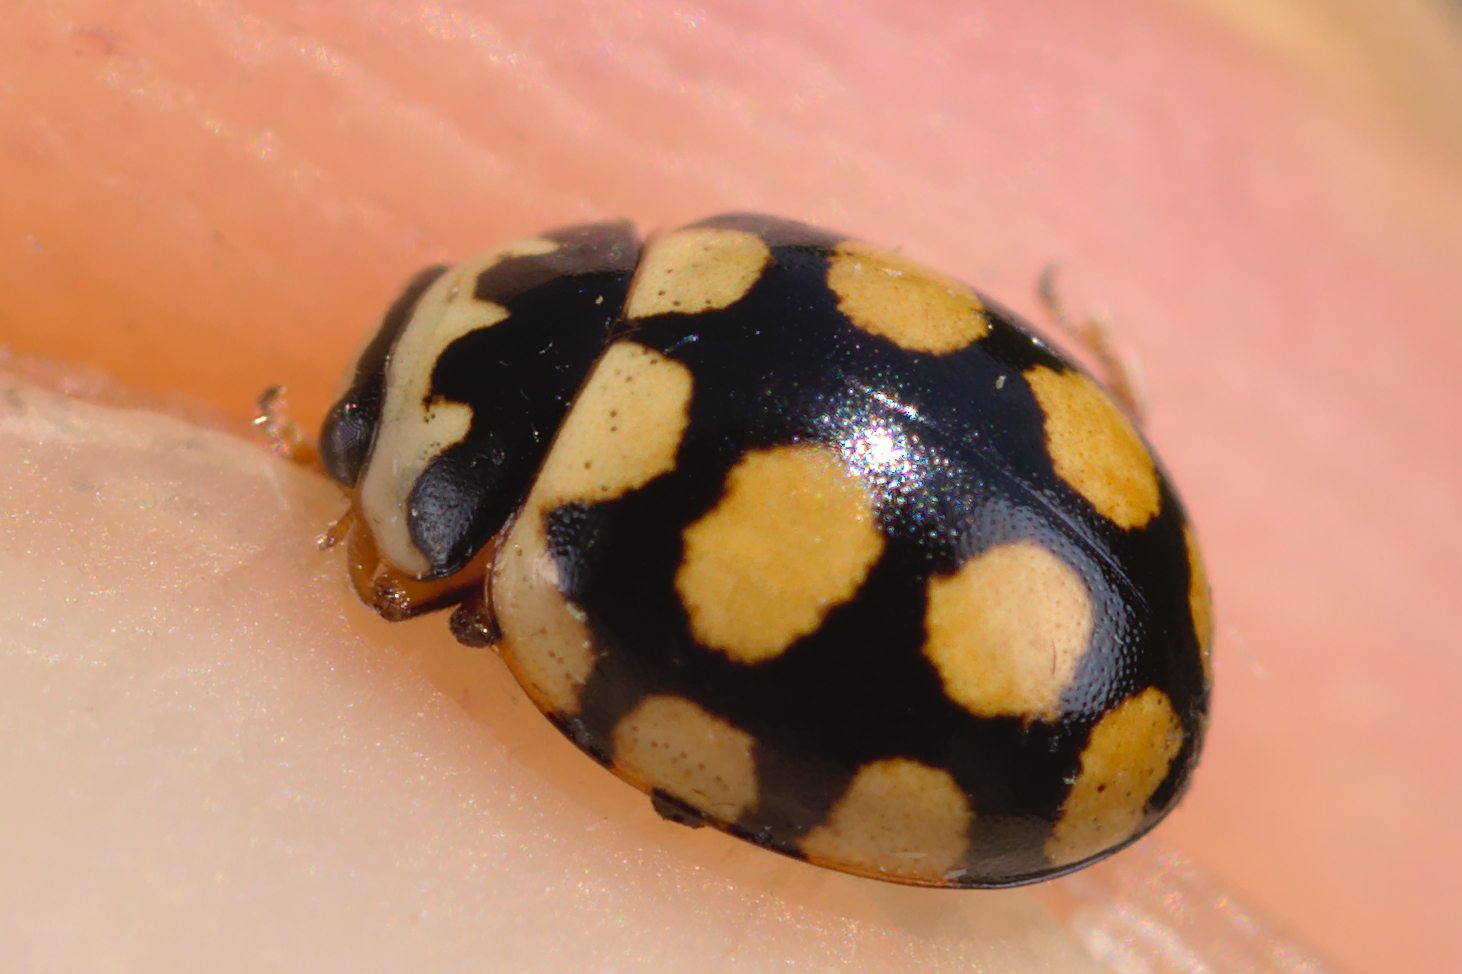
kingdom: Animalia
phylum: Arthropoda
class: Insecta
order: Coleoptera
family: Coccinellidae
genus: Coccinula
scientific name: Coccinula quatuordecimpustulata
